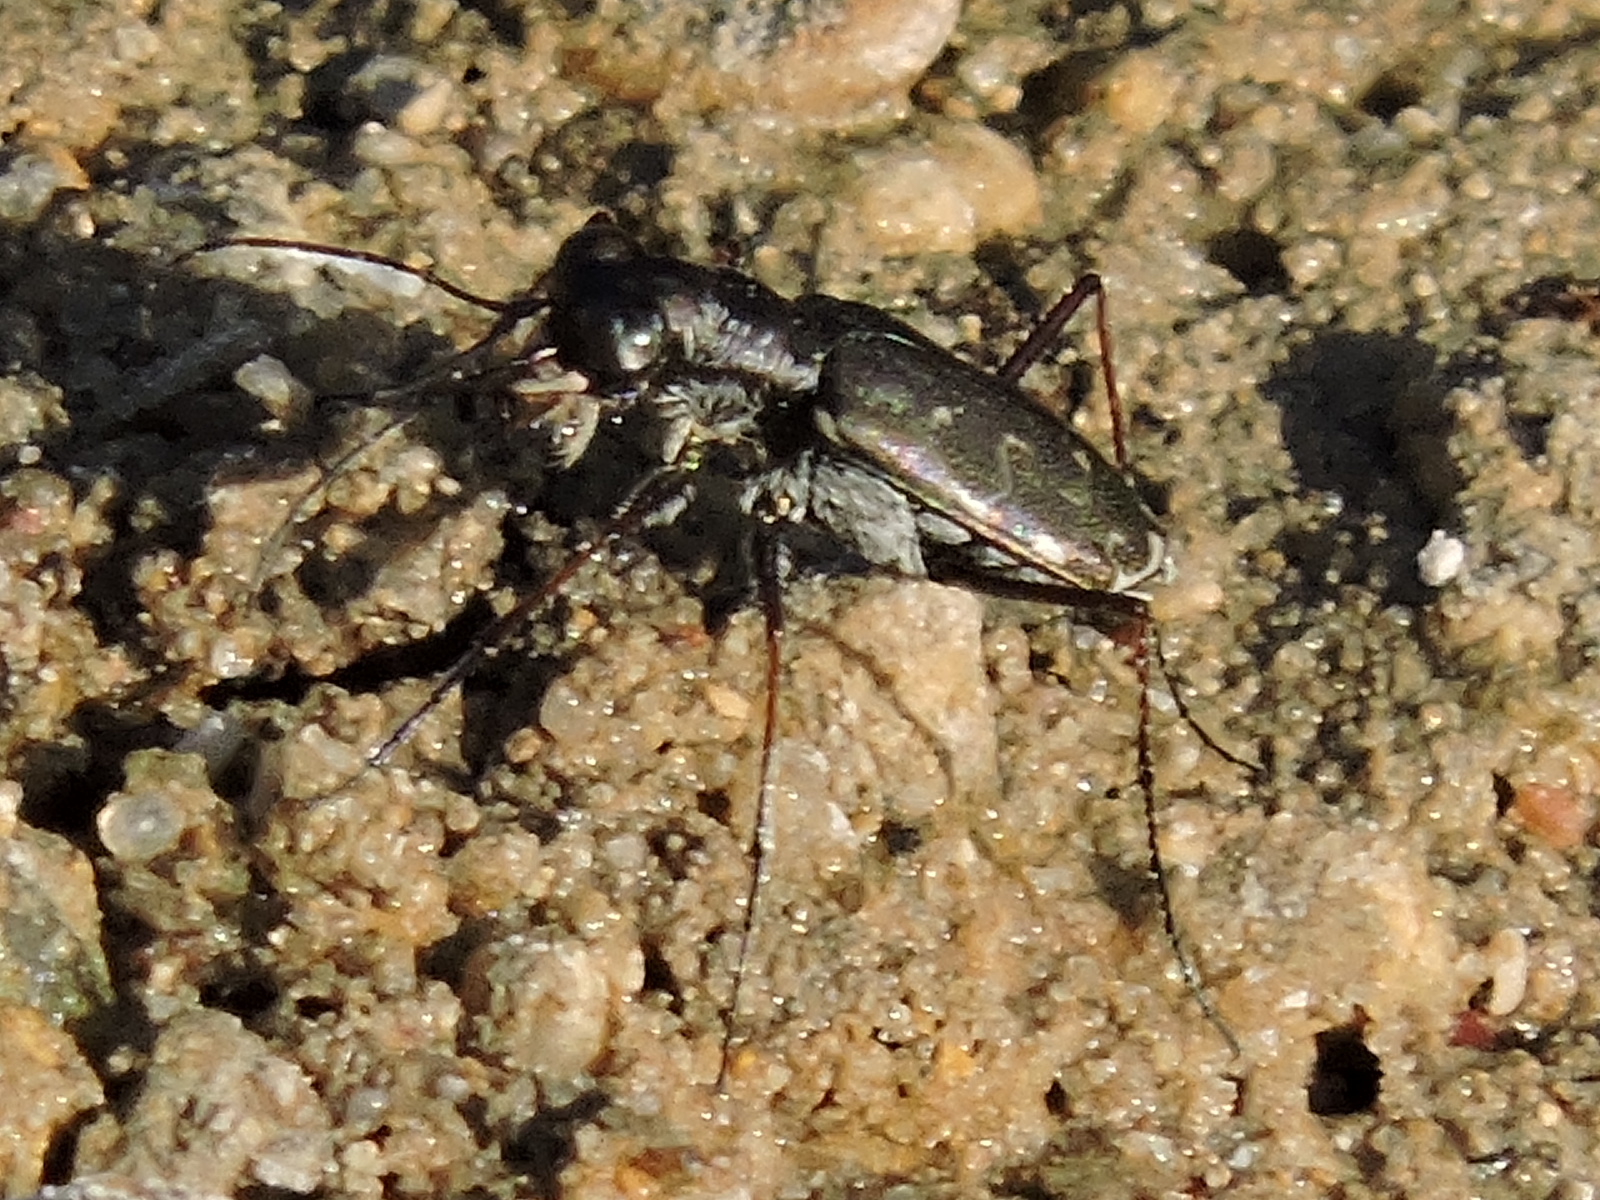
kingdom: Animalia
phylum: Arthropoda
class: Insecta
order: Coleoptera
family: Carabidae
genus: Cicindela
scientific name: Cicindela trifasciata
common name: Mudflat tiger beetle
